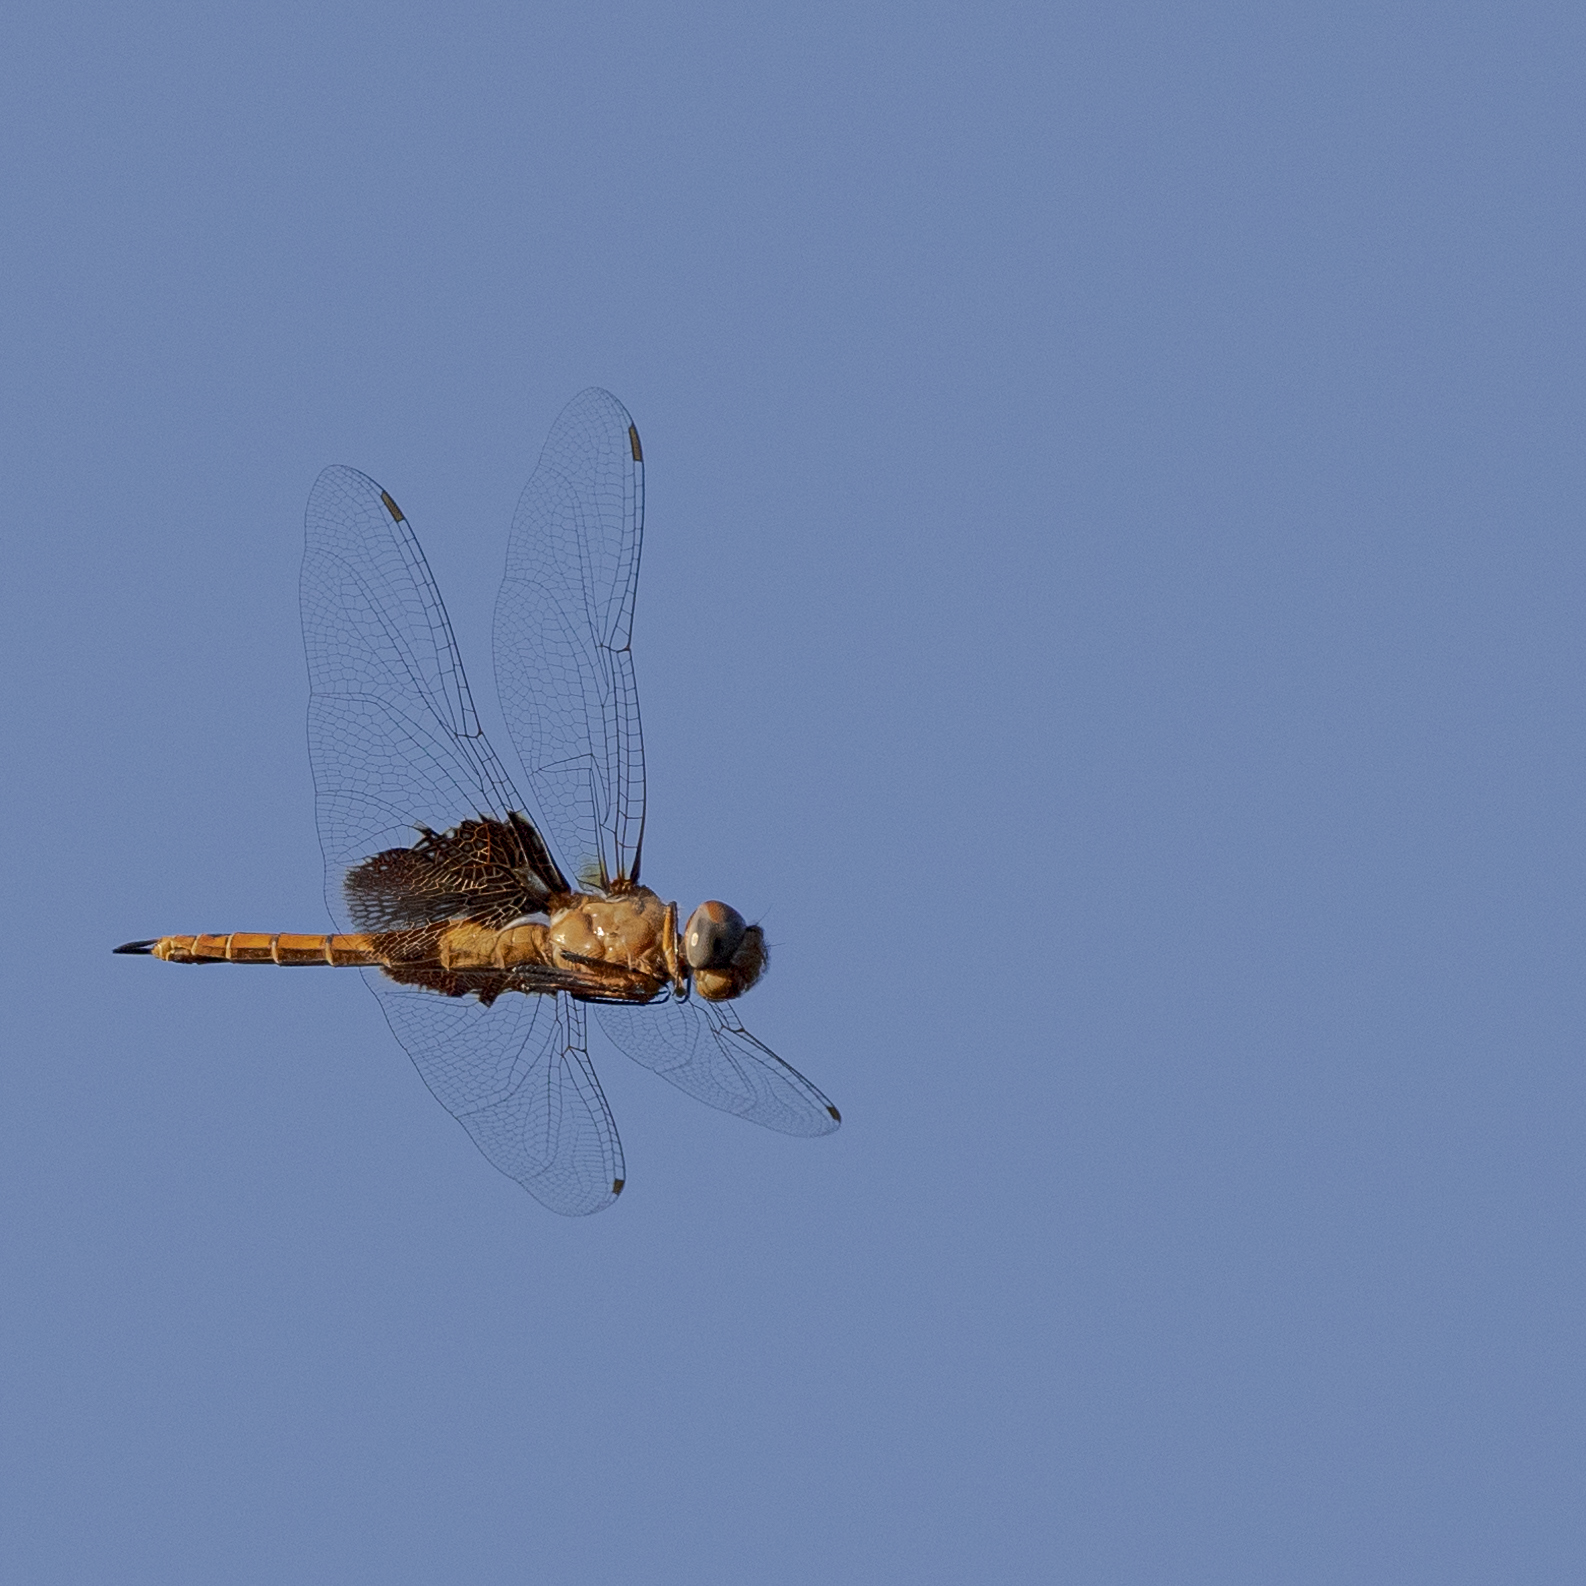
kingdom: Animalia
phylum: Arthropoda
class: Insecta
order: Odonata
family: Libellulidae
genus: Tramea
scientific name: Tramea onusta
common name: Red saddlebags
